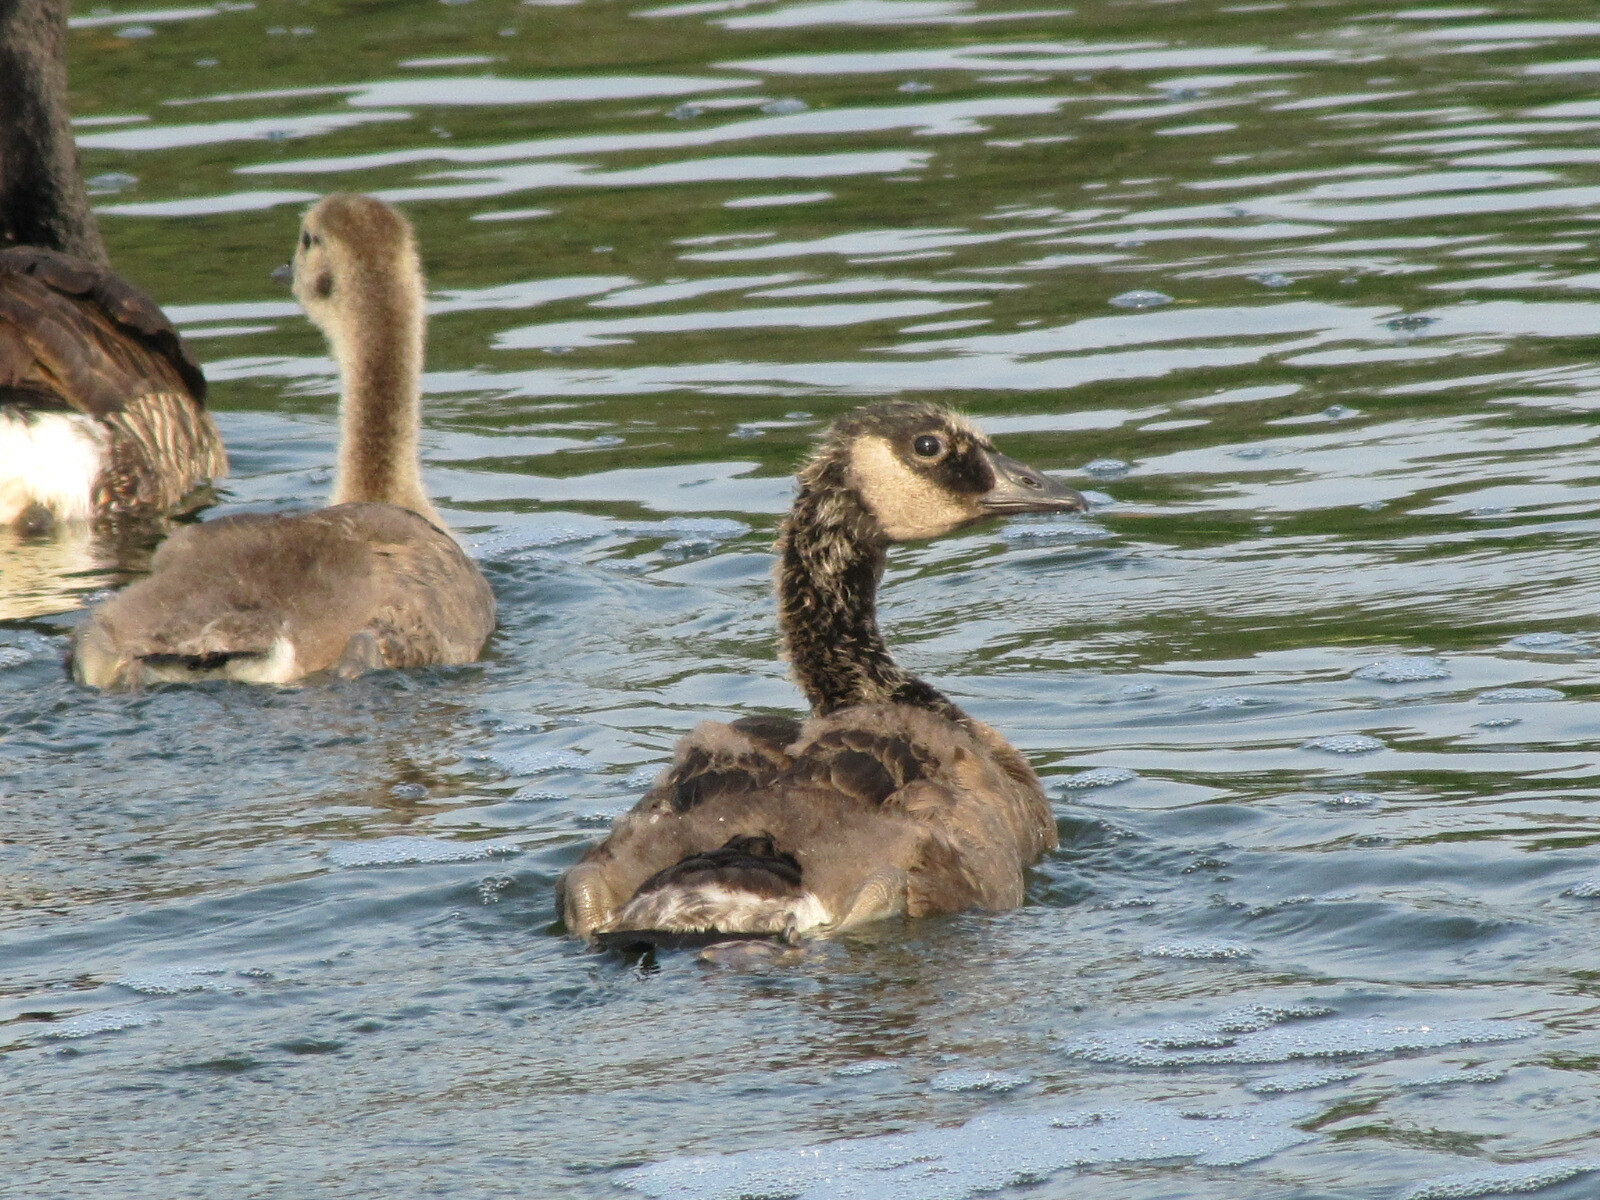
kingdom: Animalia
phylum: Chordata
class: Aves
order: Anseriformes
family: Anatidae
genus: Branta
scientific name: Branta canadensis
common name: Canada goose
